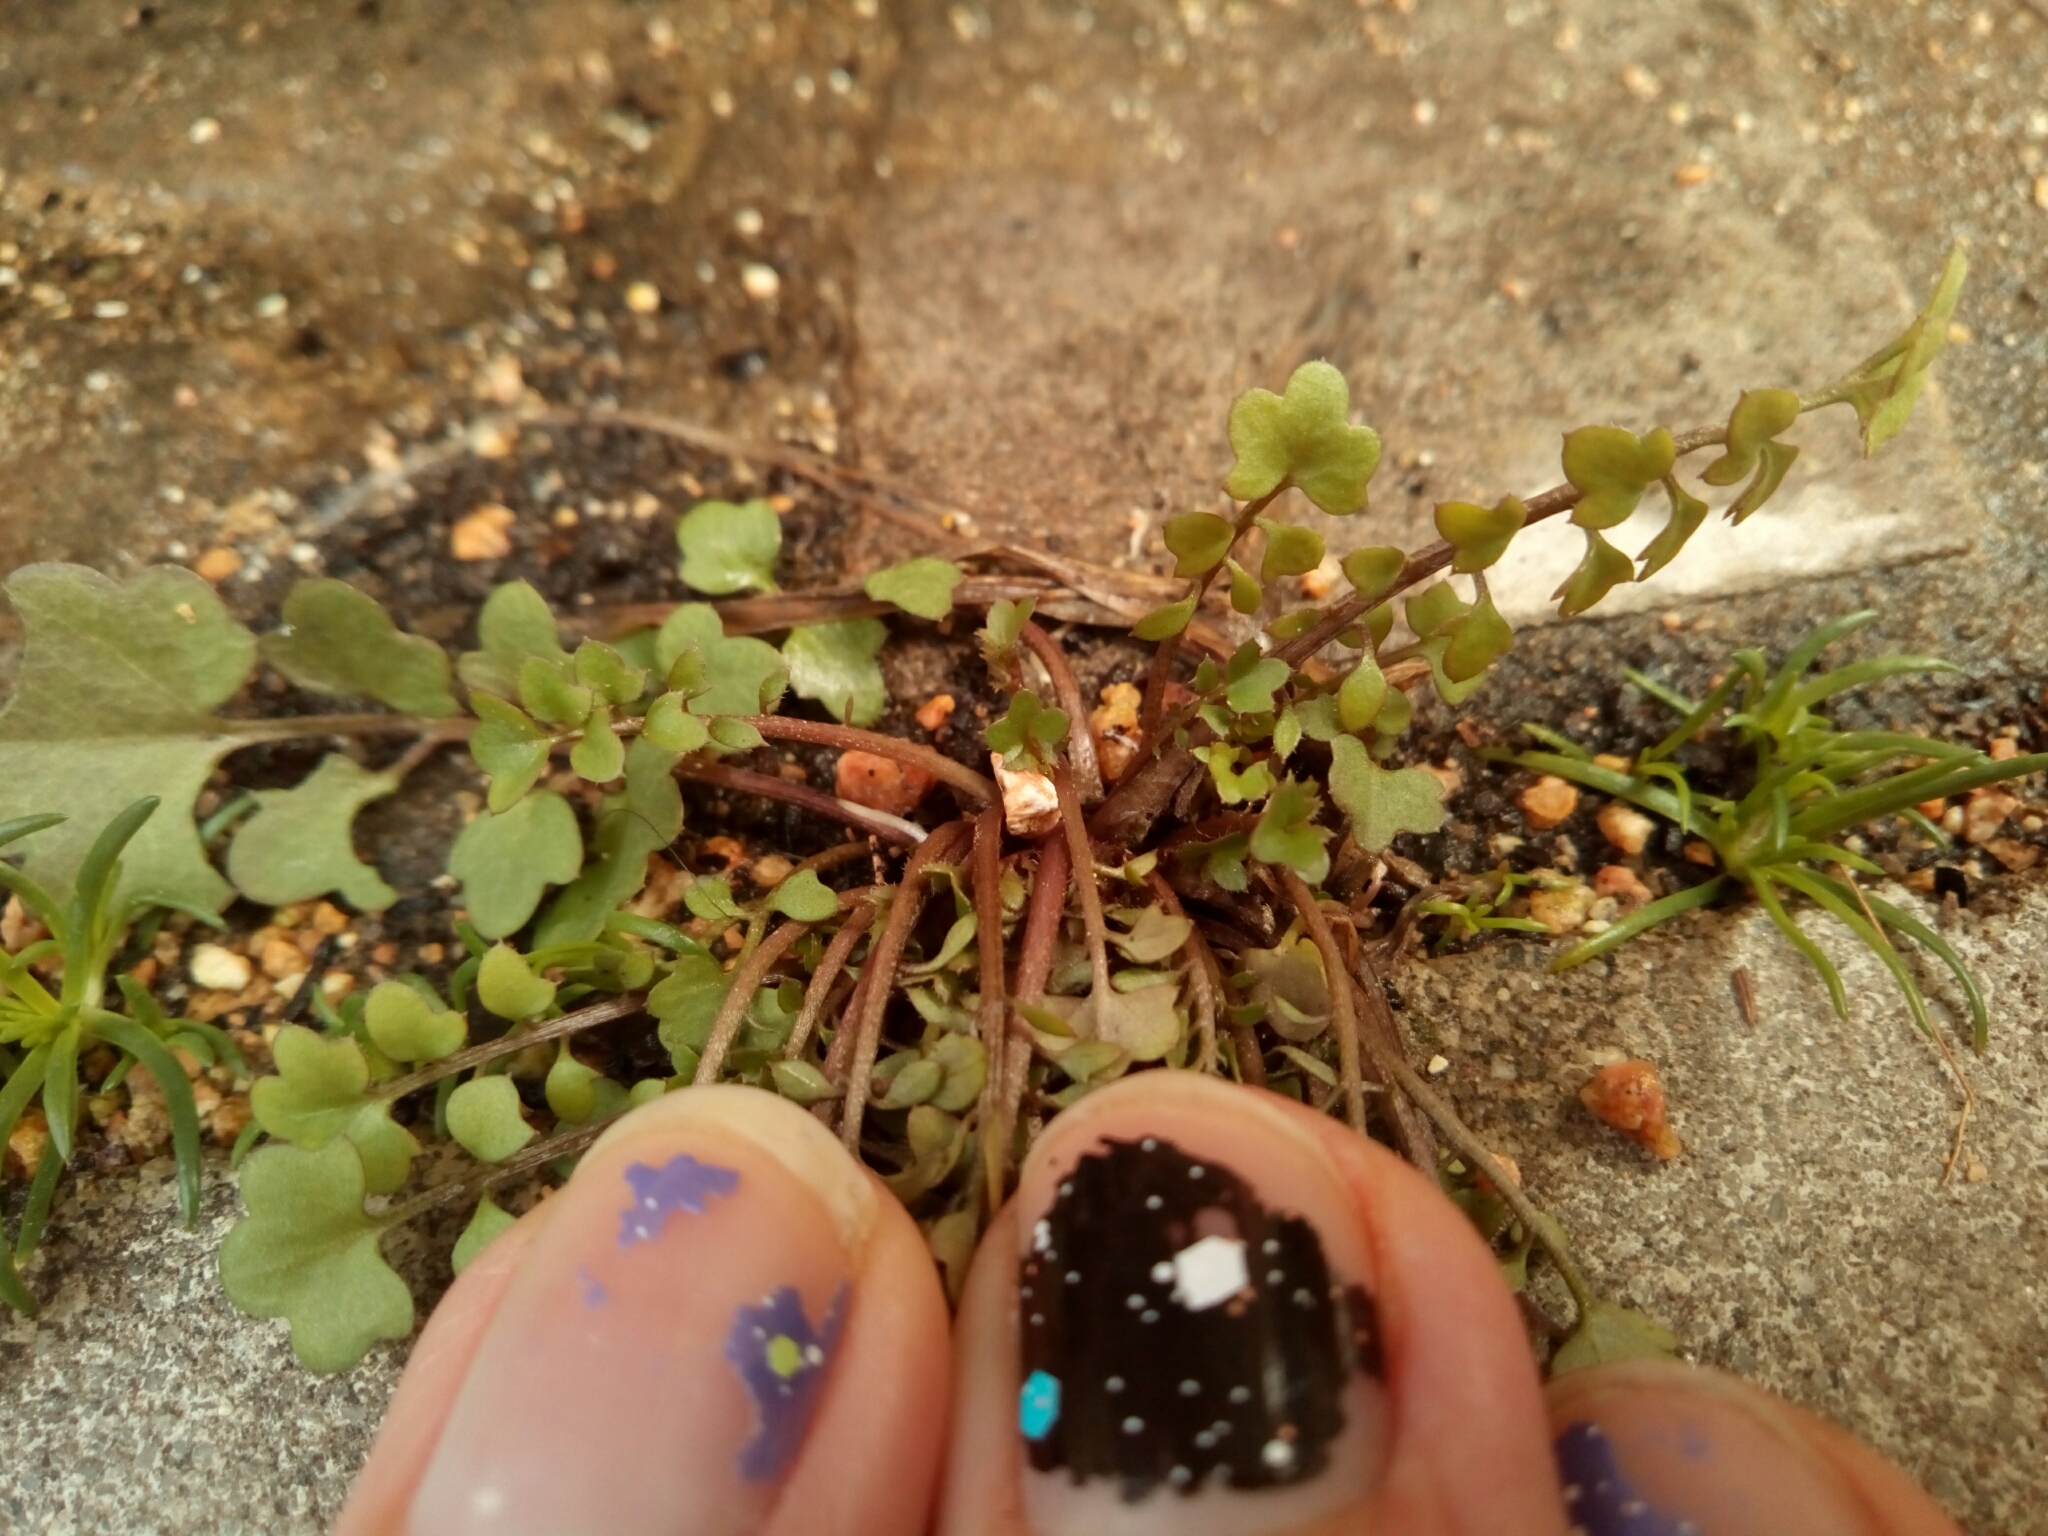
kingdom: Plantae
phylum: Tracheophyta
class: Magnoliopsida
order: Brassicales
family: Brassicaceae
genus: Cardamine
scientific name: Cardamine occulta
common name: Asian wavy bittercress
